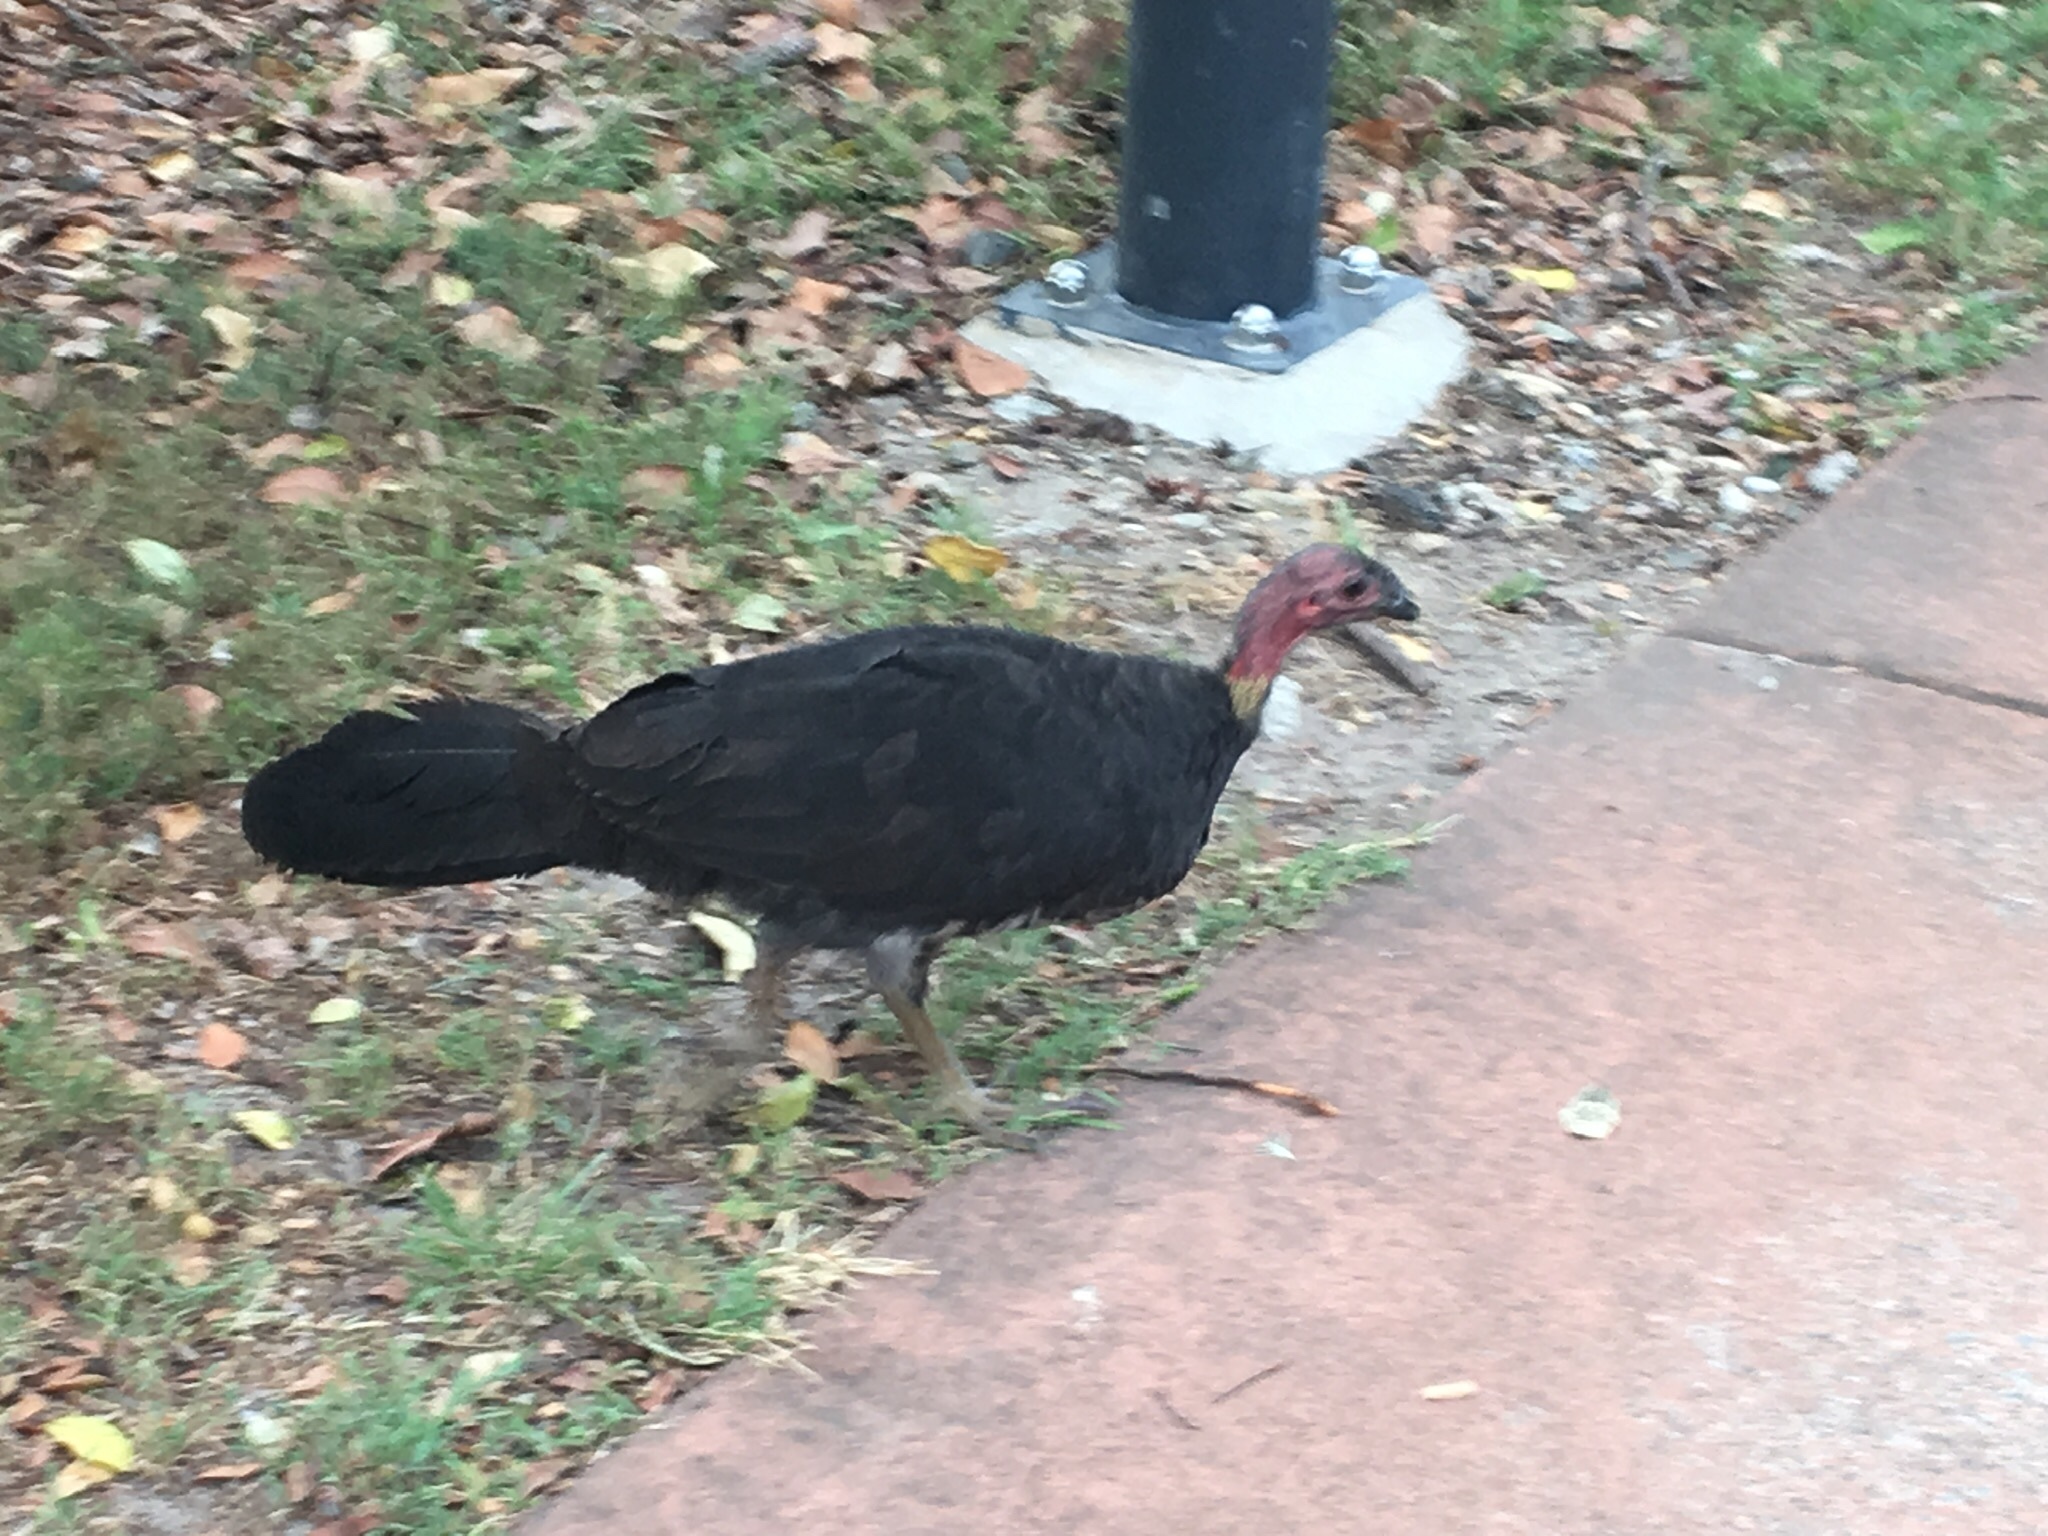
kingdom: Animalia
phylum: Chordata
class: Aves
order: Galliformes
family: Megapodiidae
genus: Alectura
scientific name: Alectura lathami
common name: Australian brushturkey
